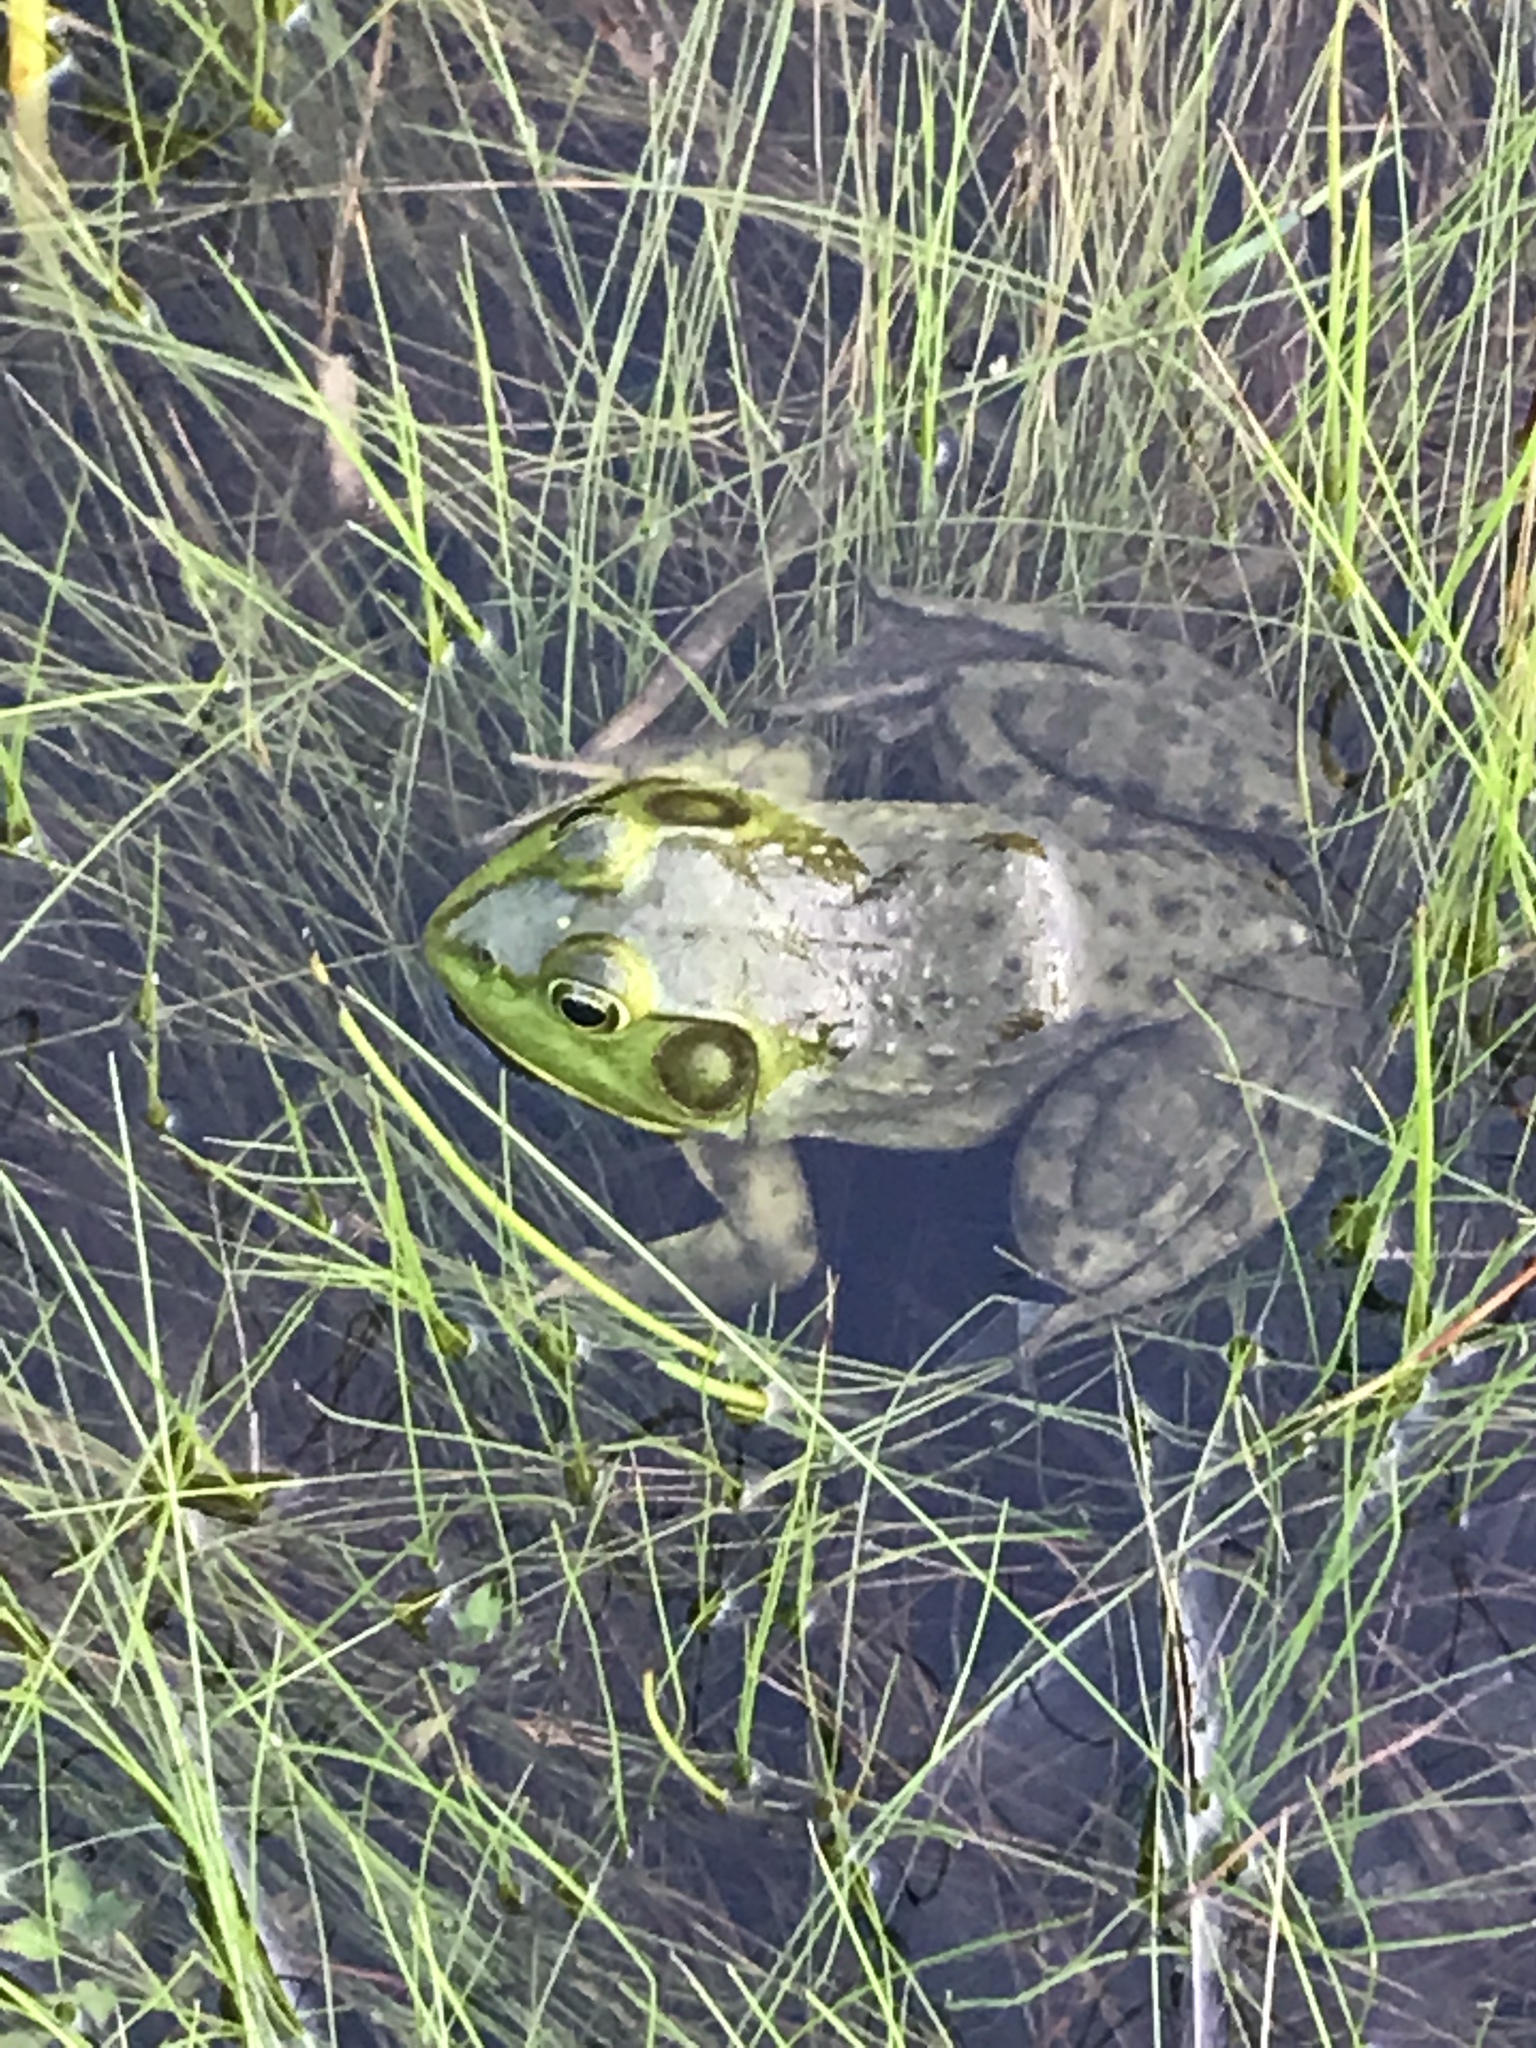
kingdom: Animalia
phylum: Chordata
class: Amphibia
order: Anura
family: Ranidae
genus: Lithobates
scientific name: Lithobates catesbeianus
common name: American bullfrog
